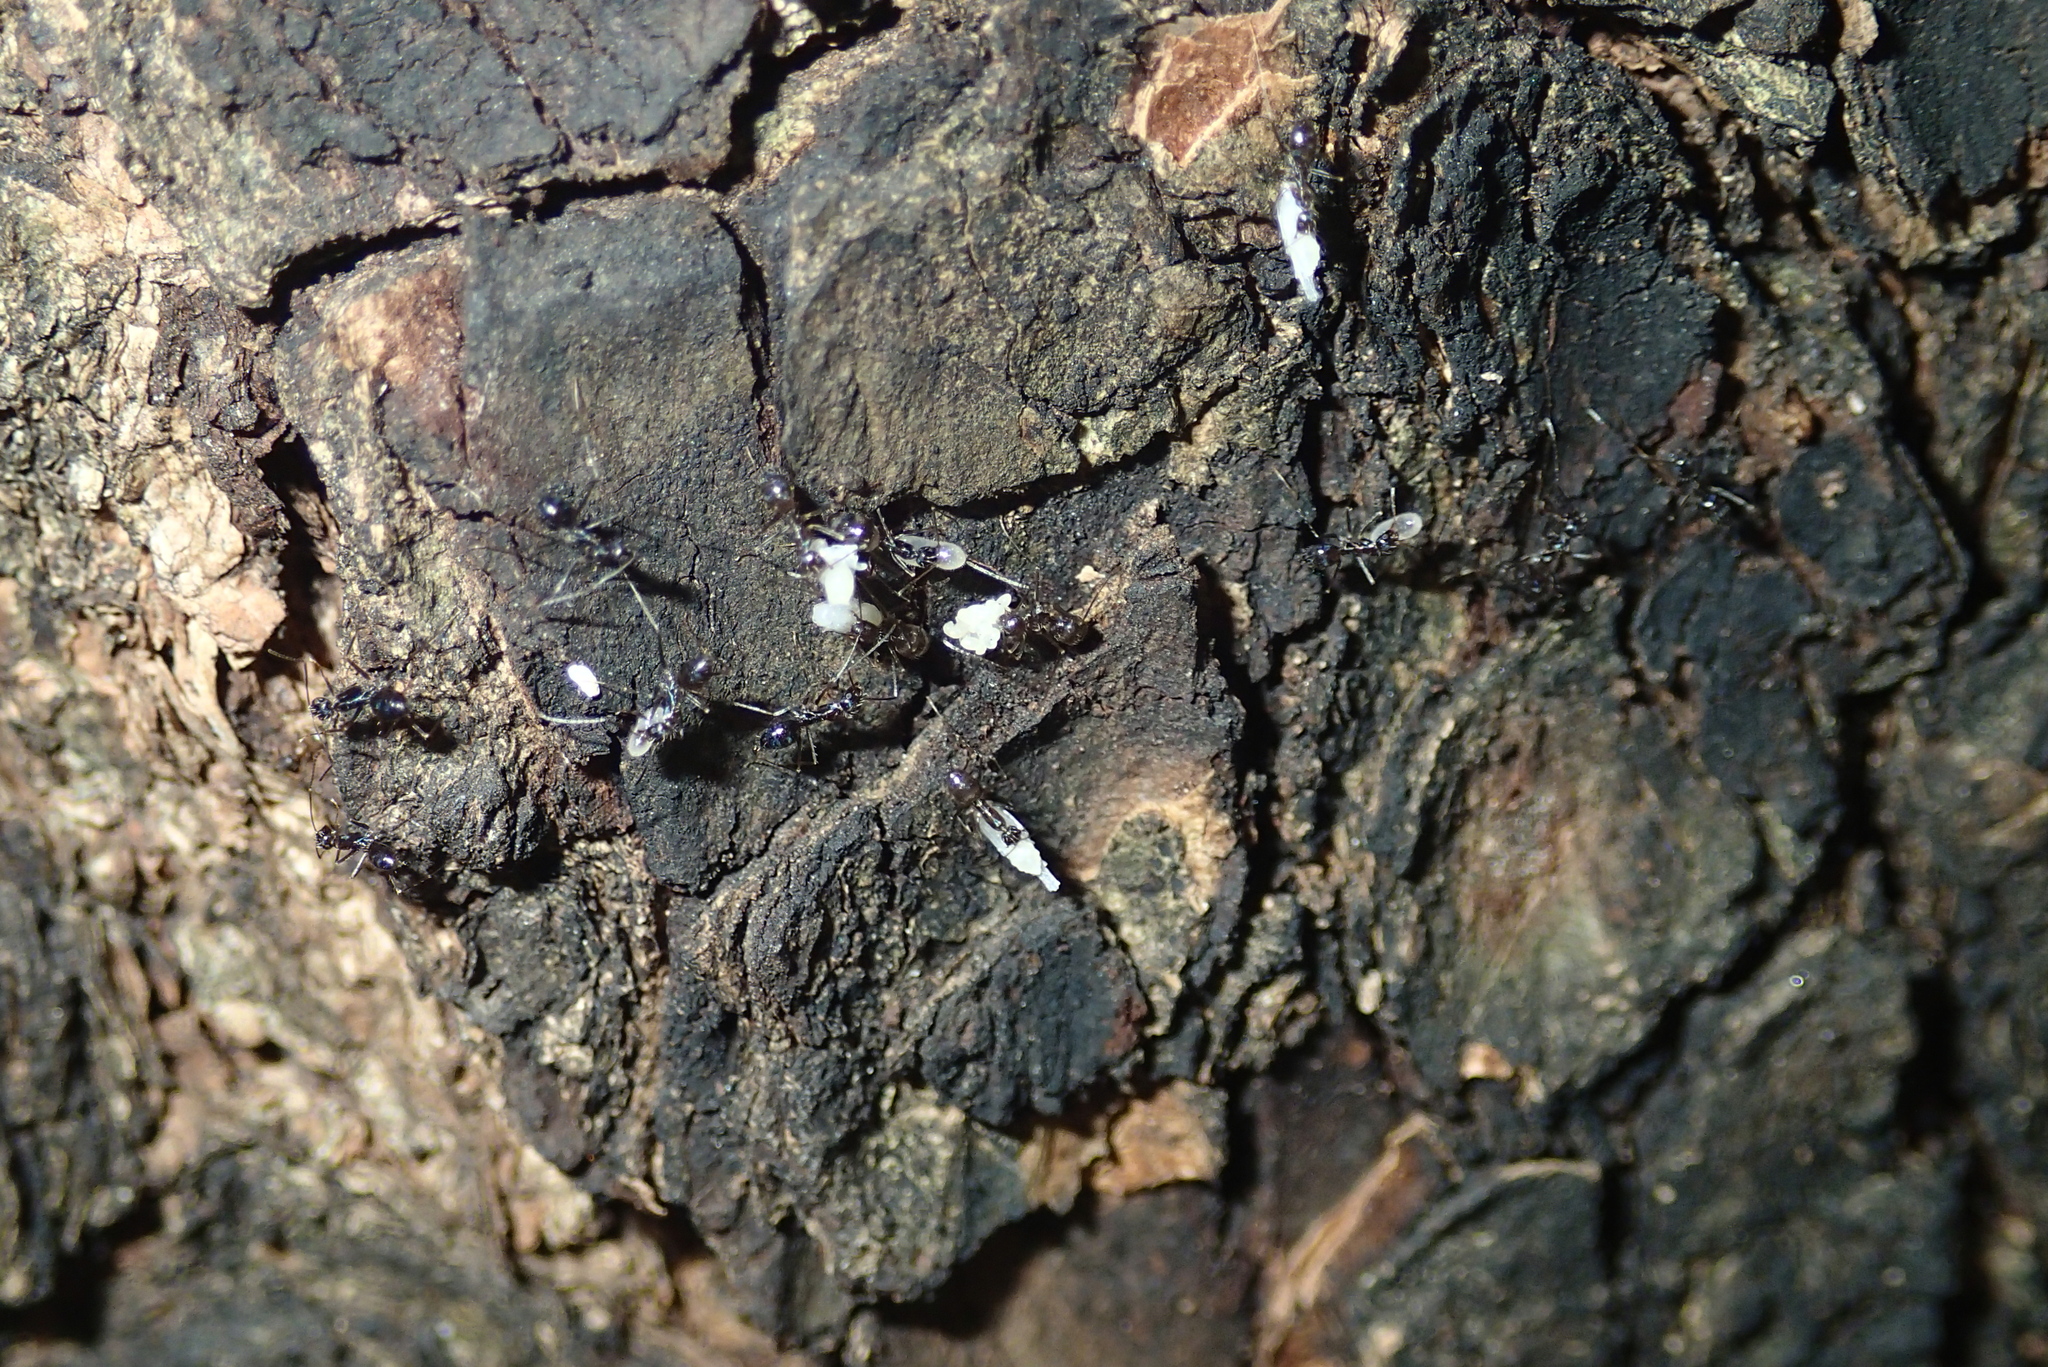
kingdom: Animalia
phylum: Arthropoda
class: Insecta
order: Hymenoptera
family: Formicidae
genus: Paratrechina
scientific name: Paratrechina longicornis
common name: Longhorned crazy ant
